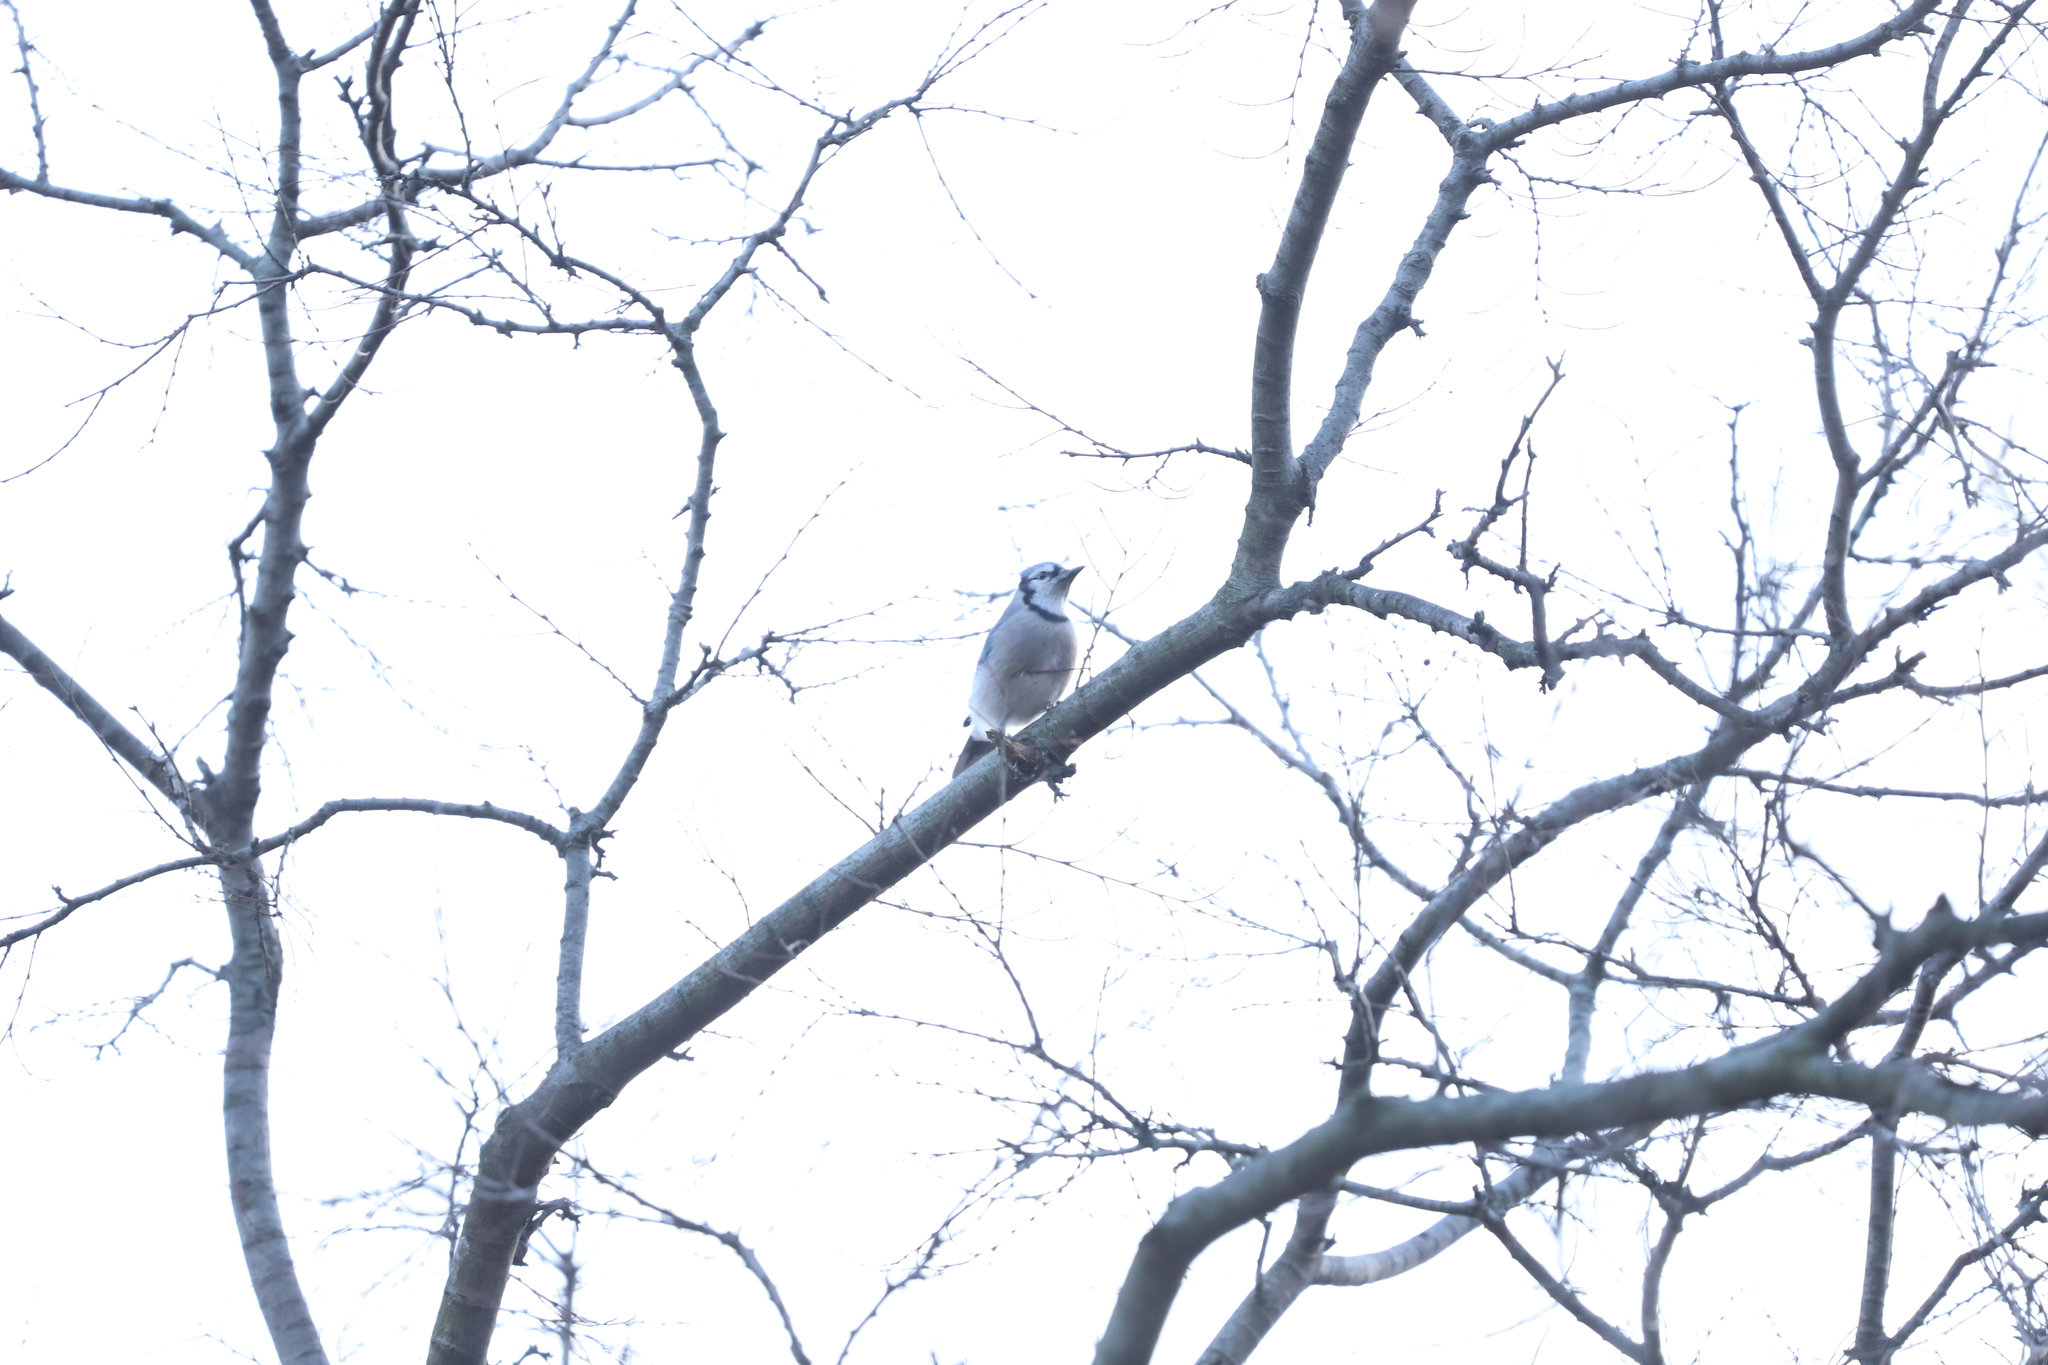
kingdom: Animalia
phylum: Chordata
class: Aves
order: Passeriformes
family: Corvidae
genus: Cyanocitta
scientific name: Cyanocitta cristata
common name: Blue jay
